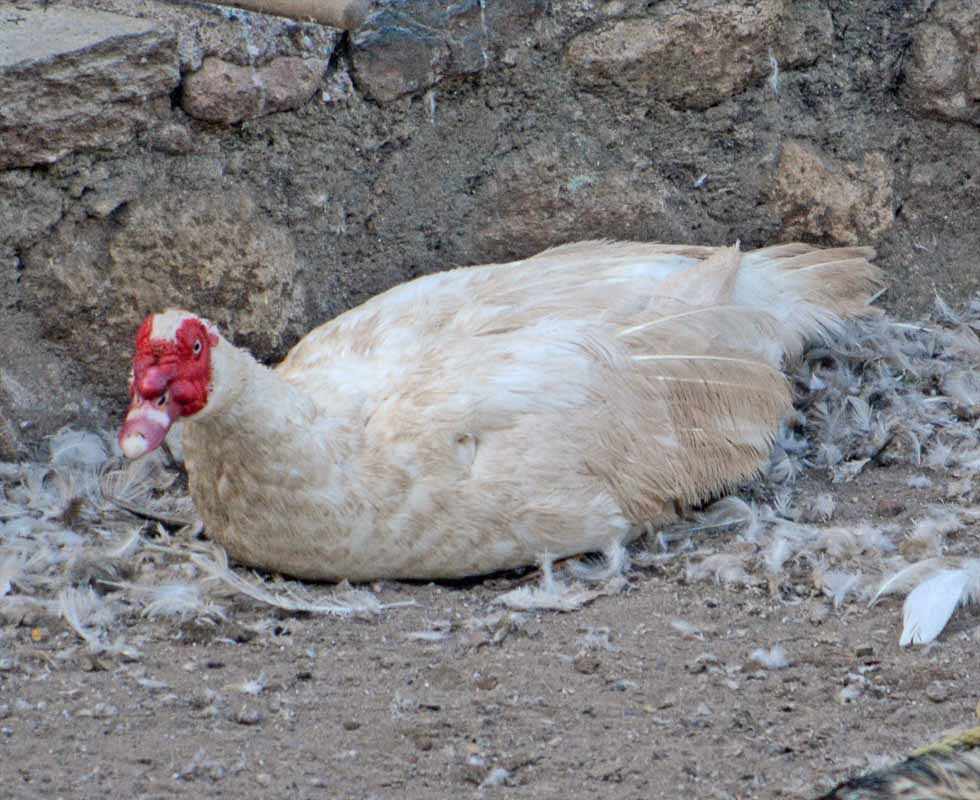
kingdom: Animalia
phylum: Chordata
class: Aves
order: Anseriformes
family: Anatidae
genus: Cairina
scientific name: Cairina moschata
